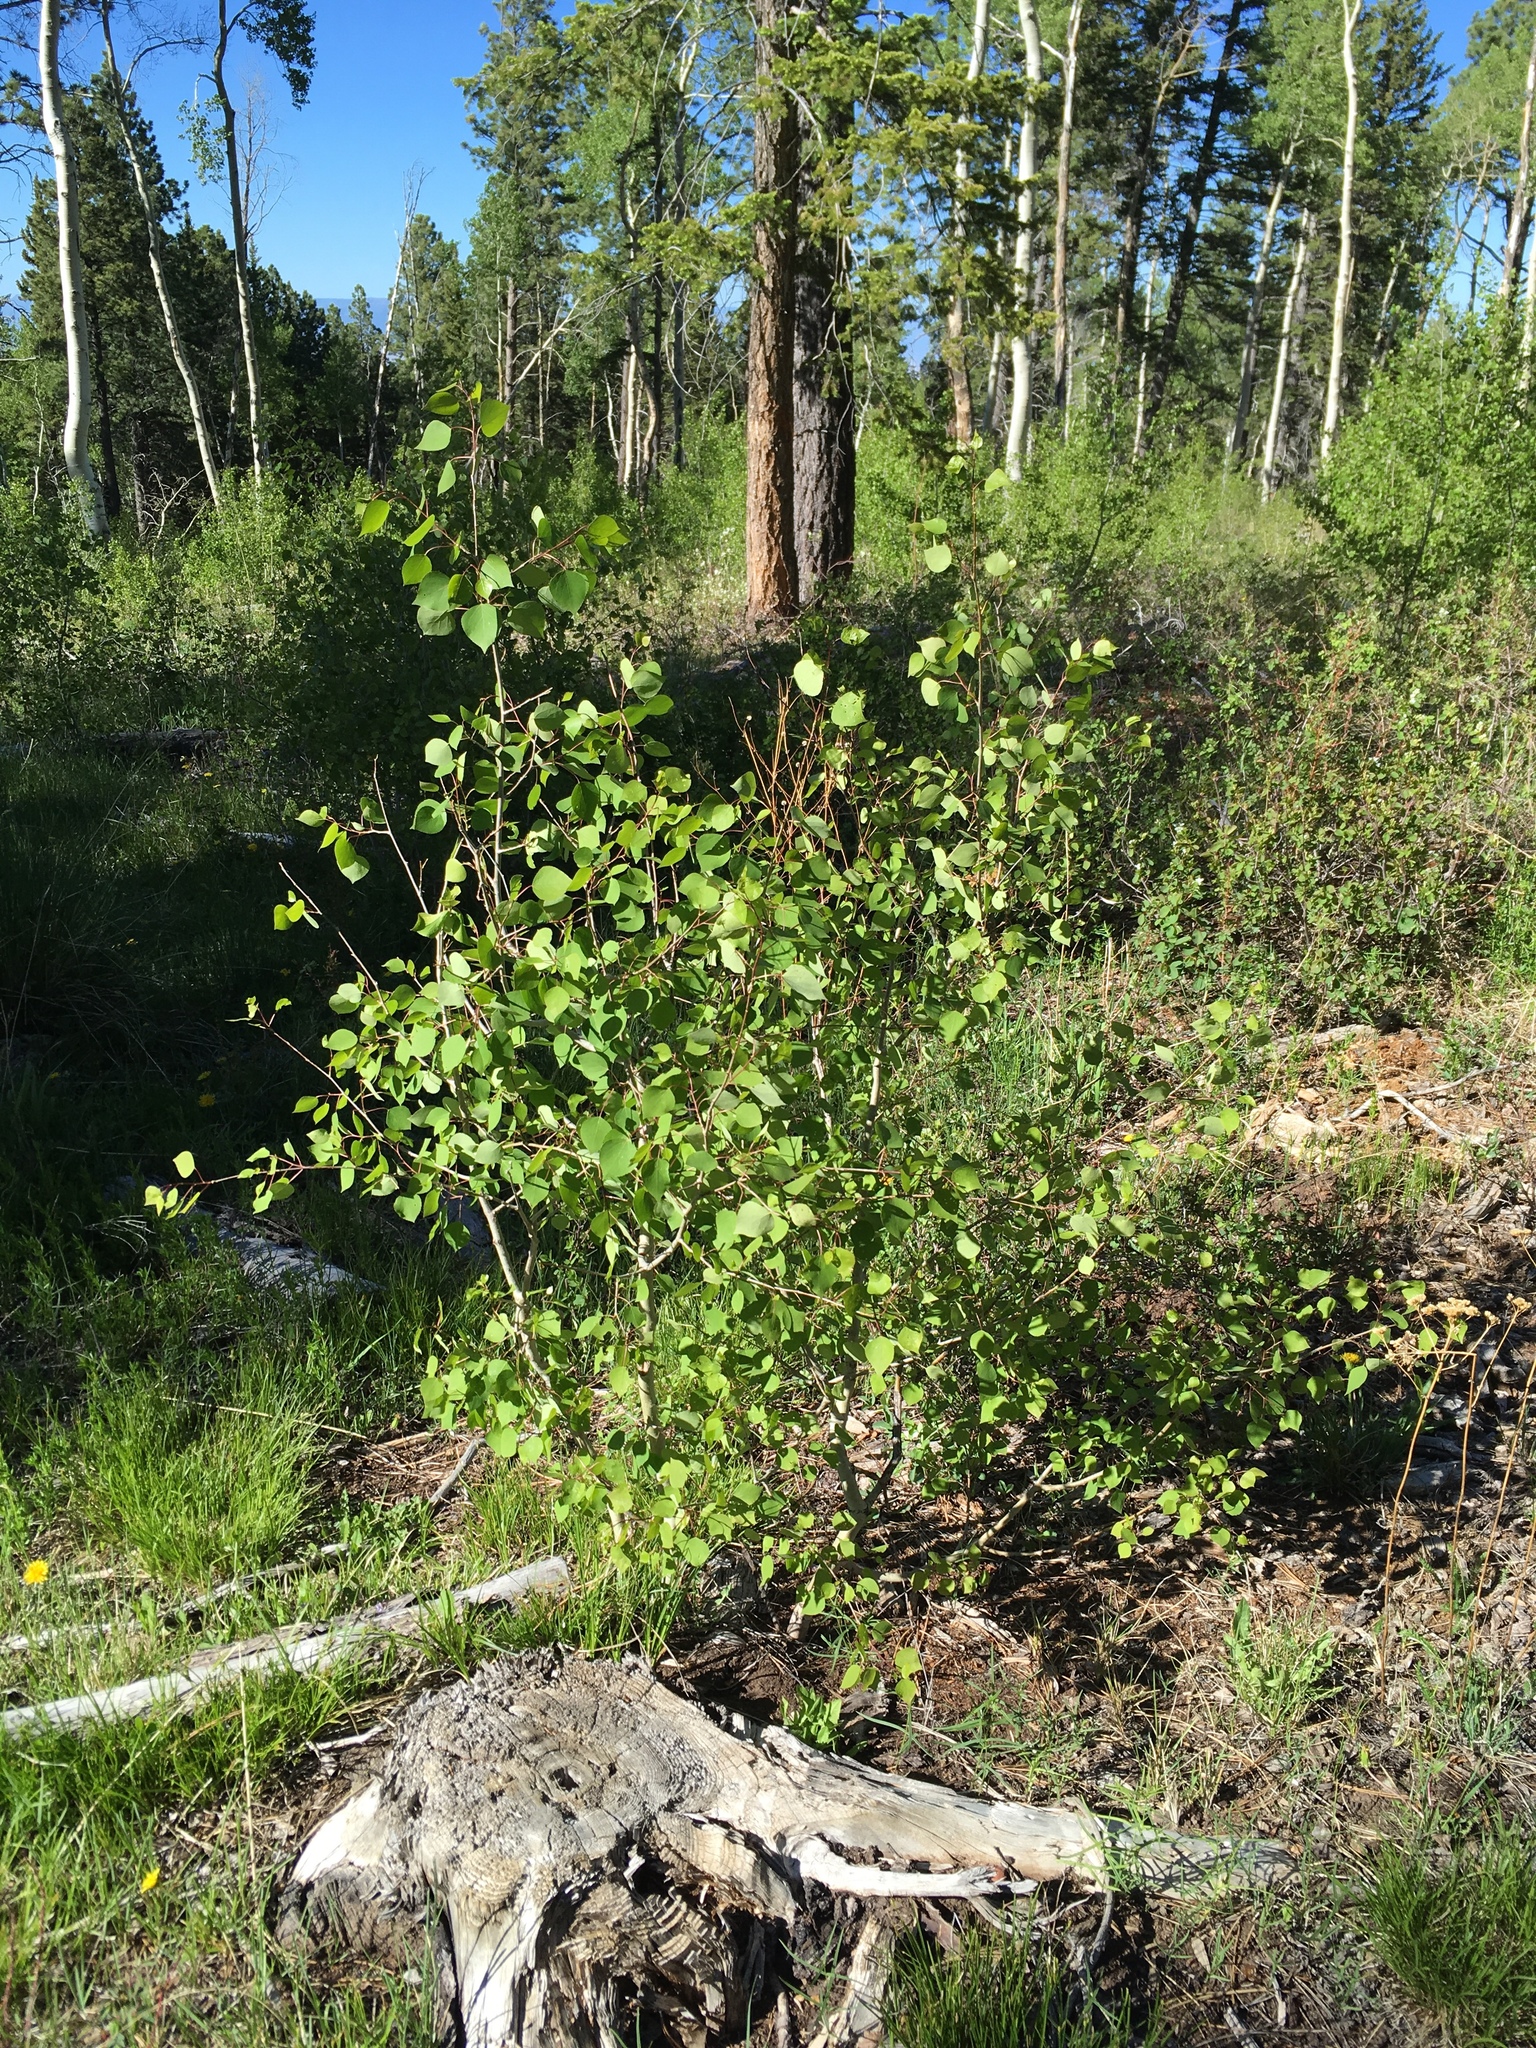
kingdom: Plantae
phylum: Tracheophyta
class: Magnoliopsida
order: Malpighiales
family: Salicaceae
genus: Populus
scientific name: Populus tremuloides
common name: Quaking aspen
